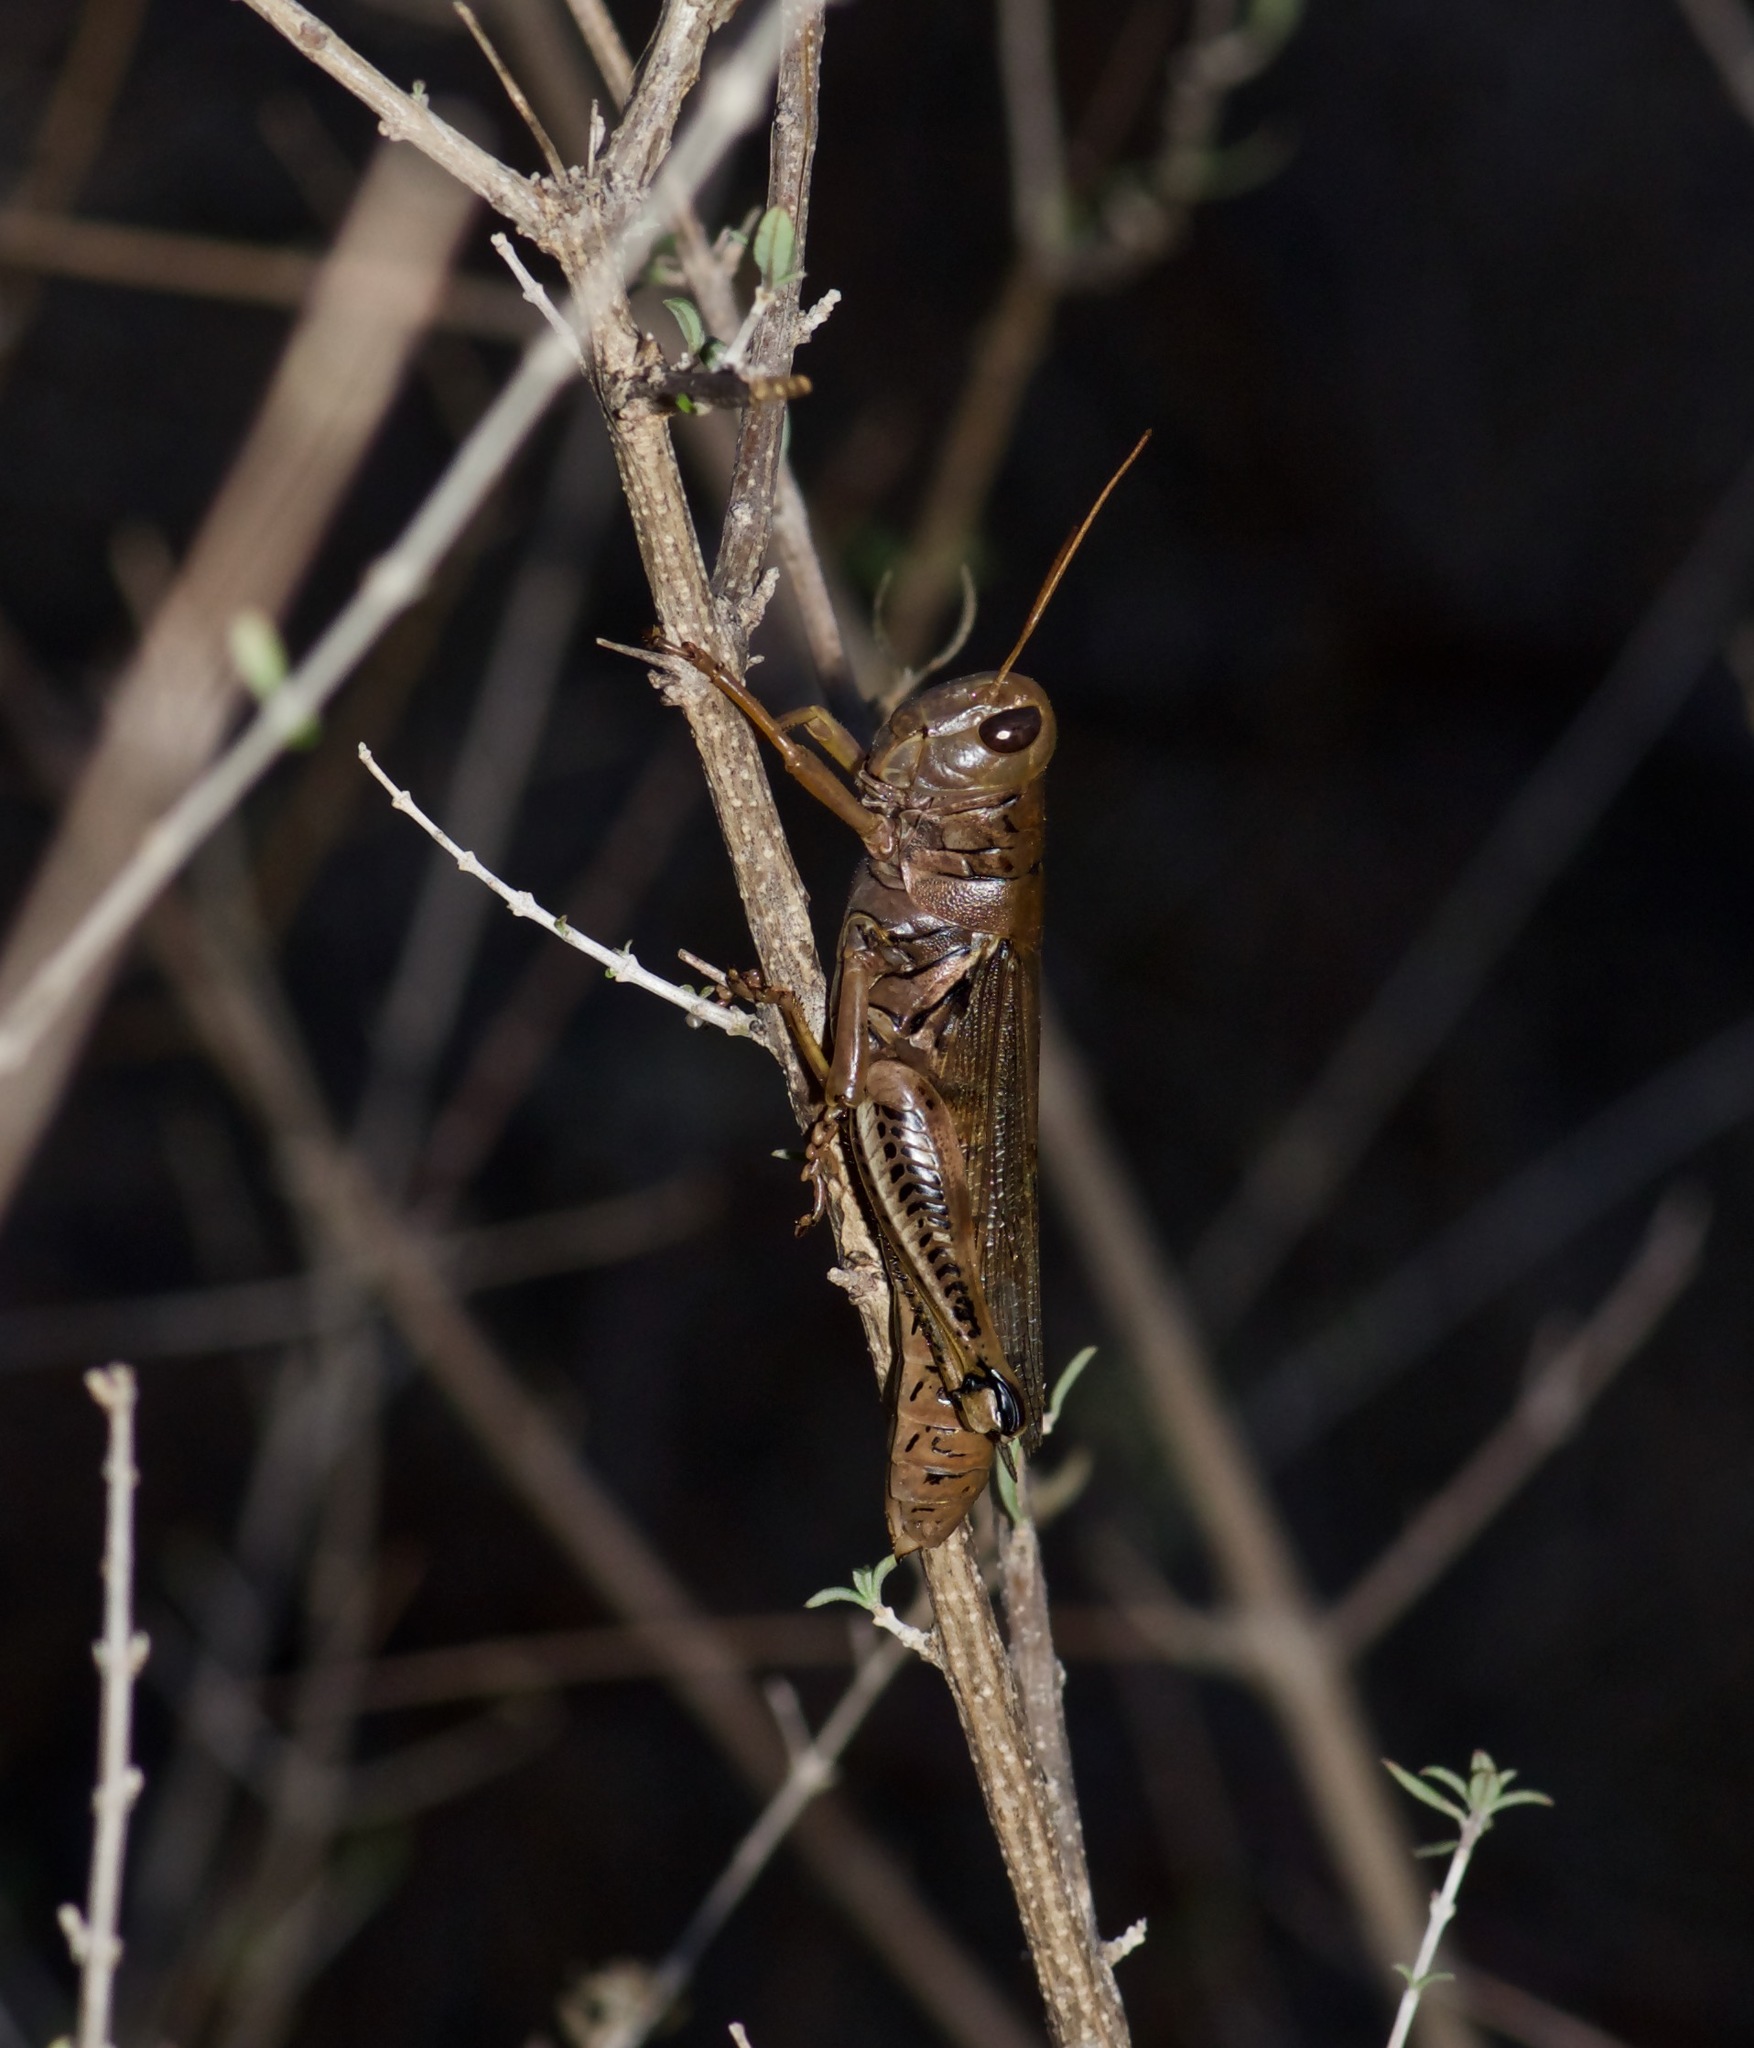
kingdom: Animalia
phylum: Arthropoda
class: Insecta
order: Orthoptera
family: Acrididae
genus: Melanoplus
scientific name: Melanoplus differentialis
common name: Differential grasshopper
